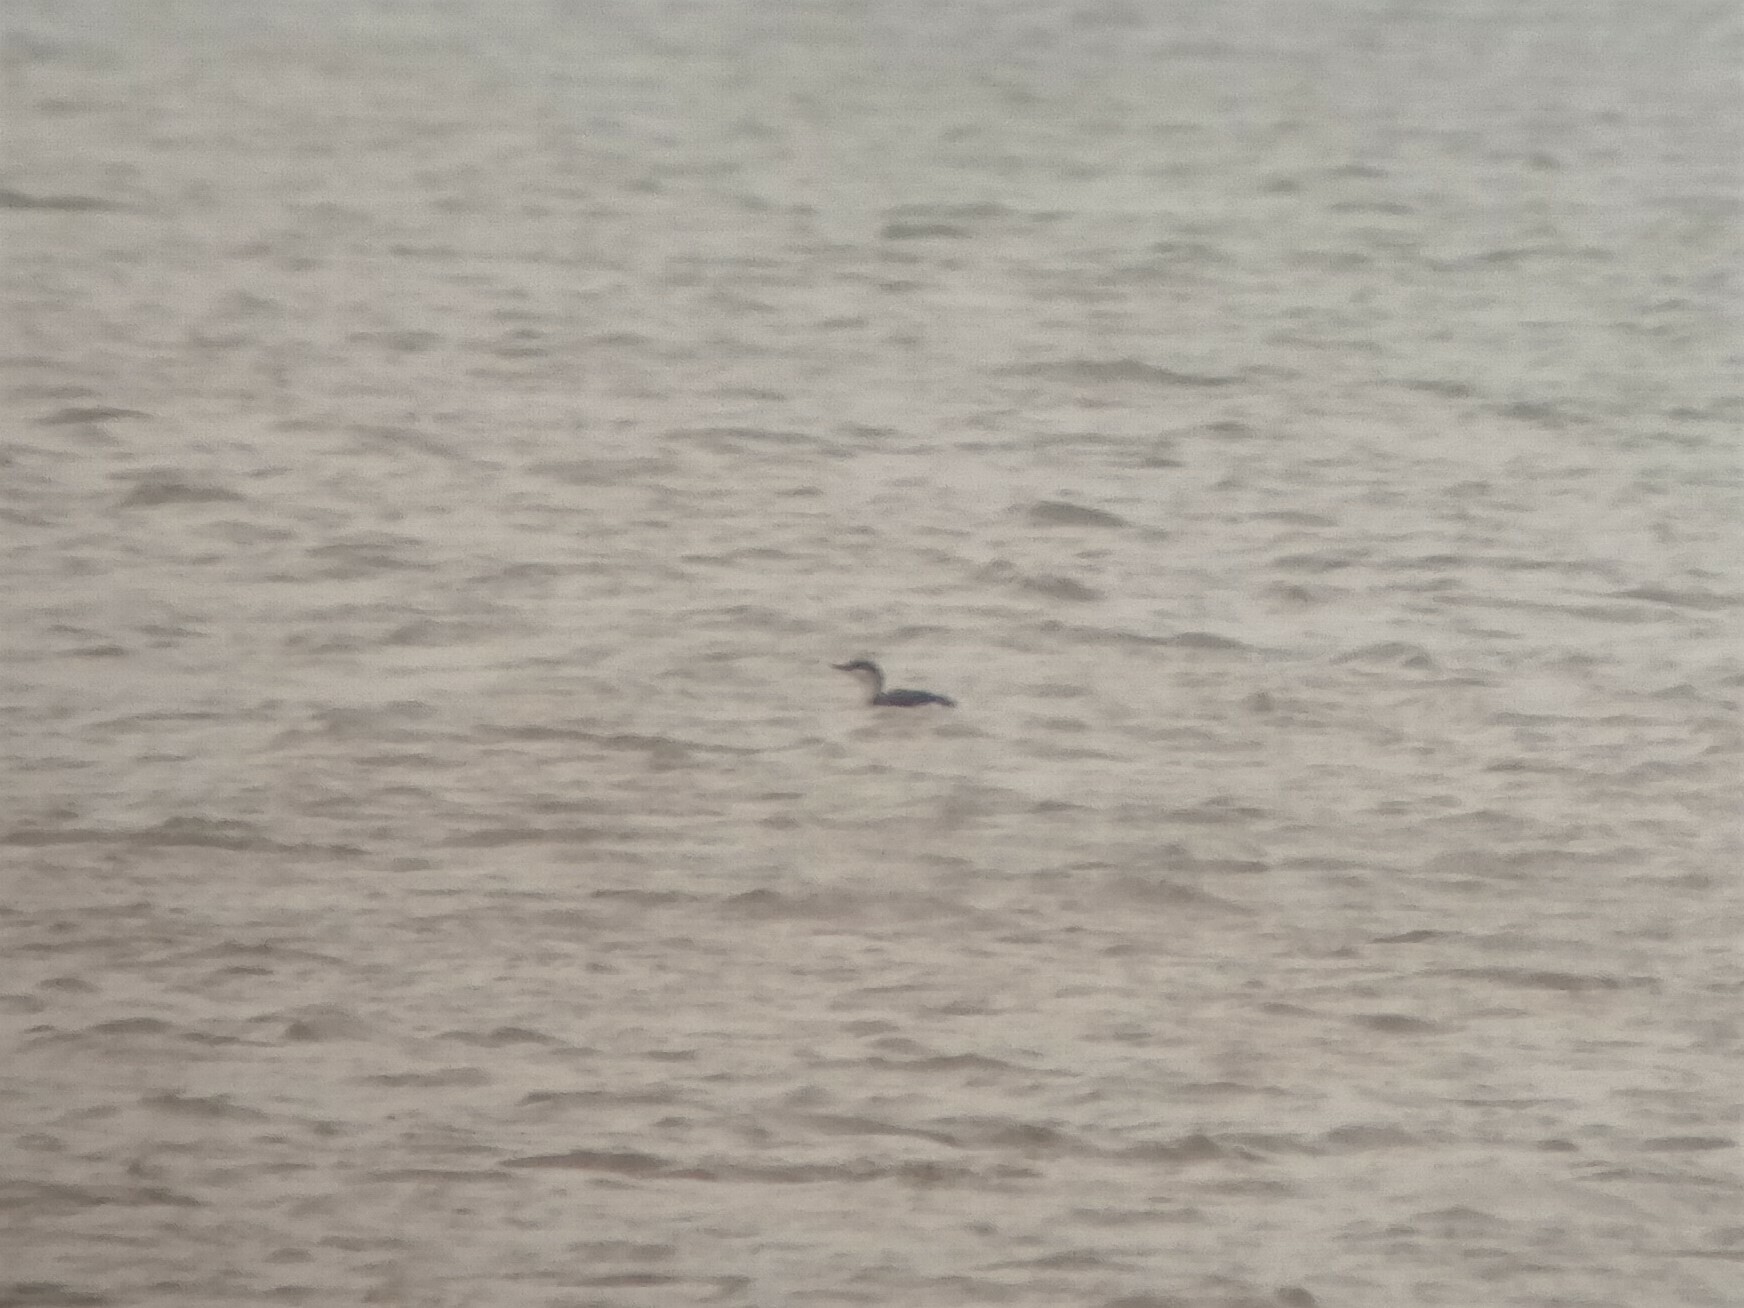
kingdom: Animalia
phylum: Chordata
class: Aves
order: Gaviiformes
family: Gaviidae
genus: Gavia
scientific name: Gavia stellata
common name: Red-throated loon
